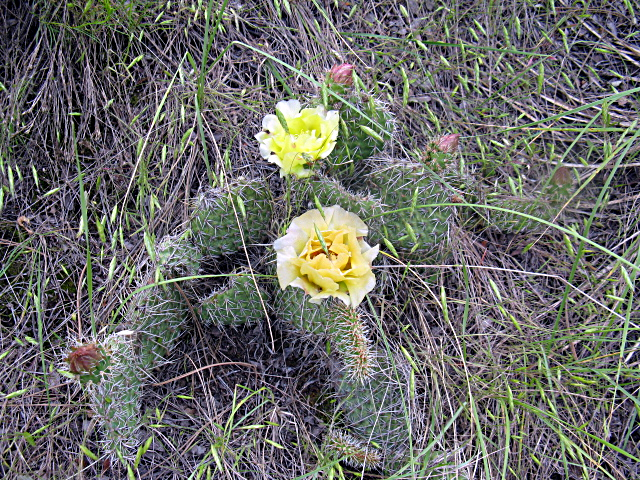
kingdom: Plantae
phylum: Tracheophyta
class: Magnoliopsida
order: Caryophyllales
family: Cactaceae
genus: Opuntia
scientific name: Opuntia polyacantha
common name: Plains prickly-pear
